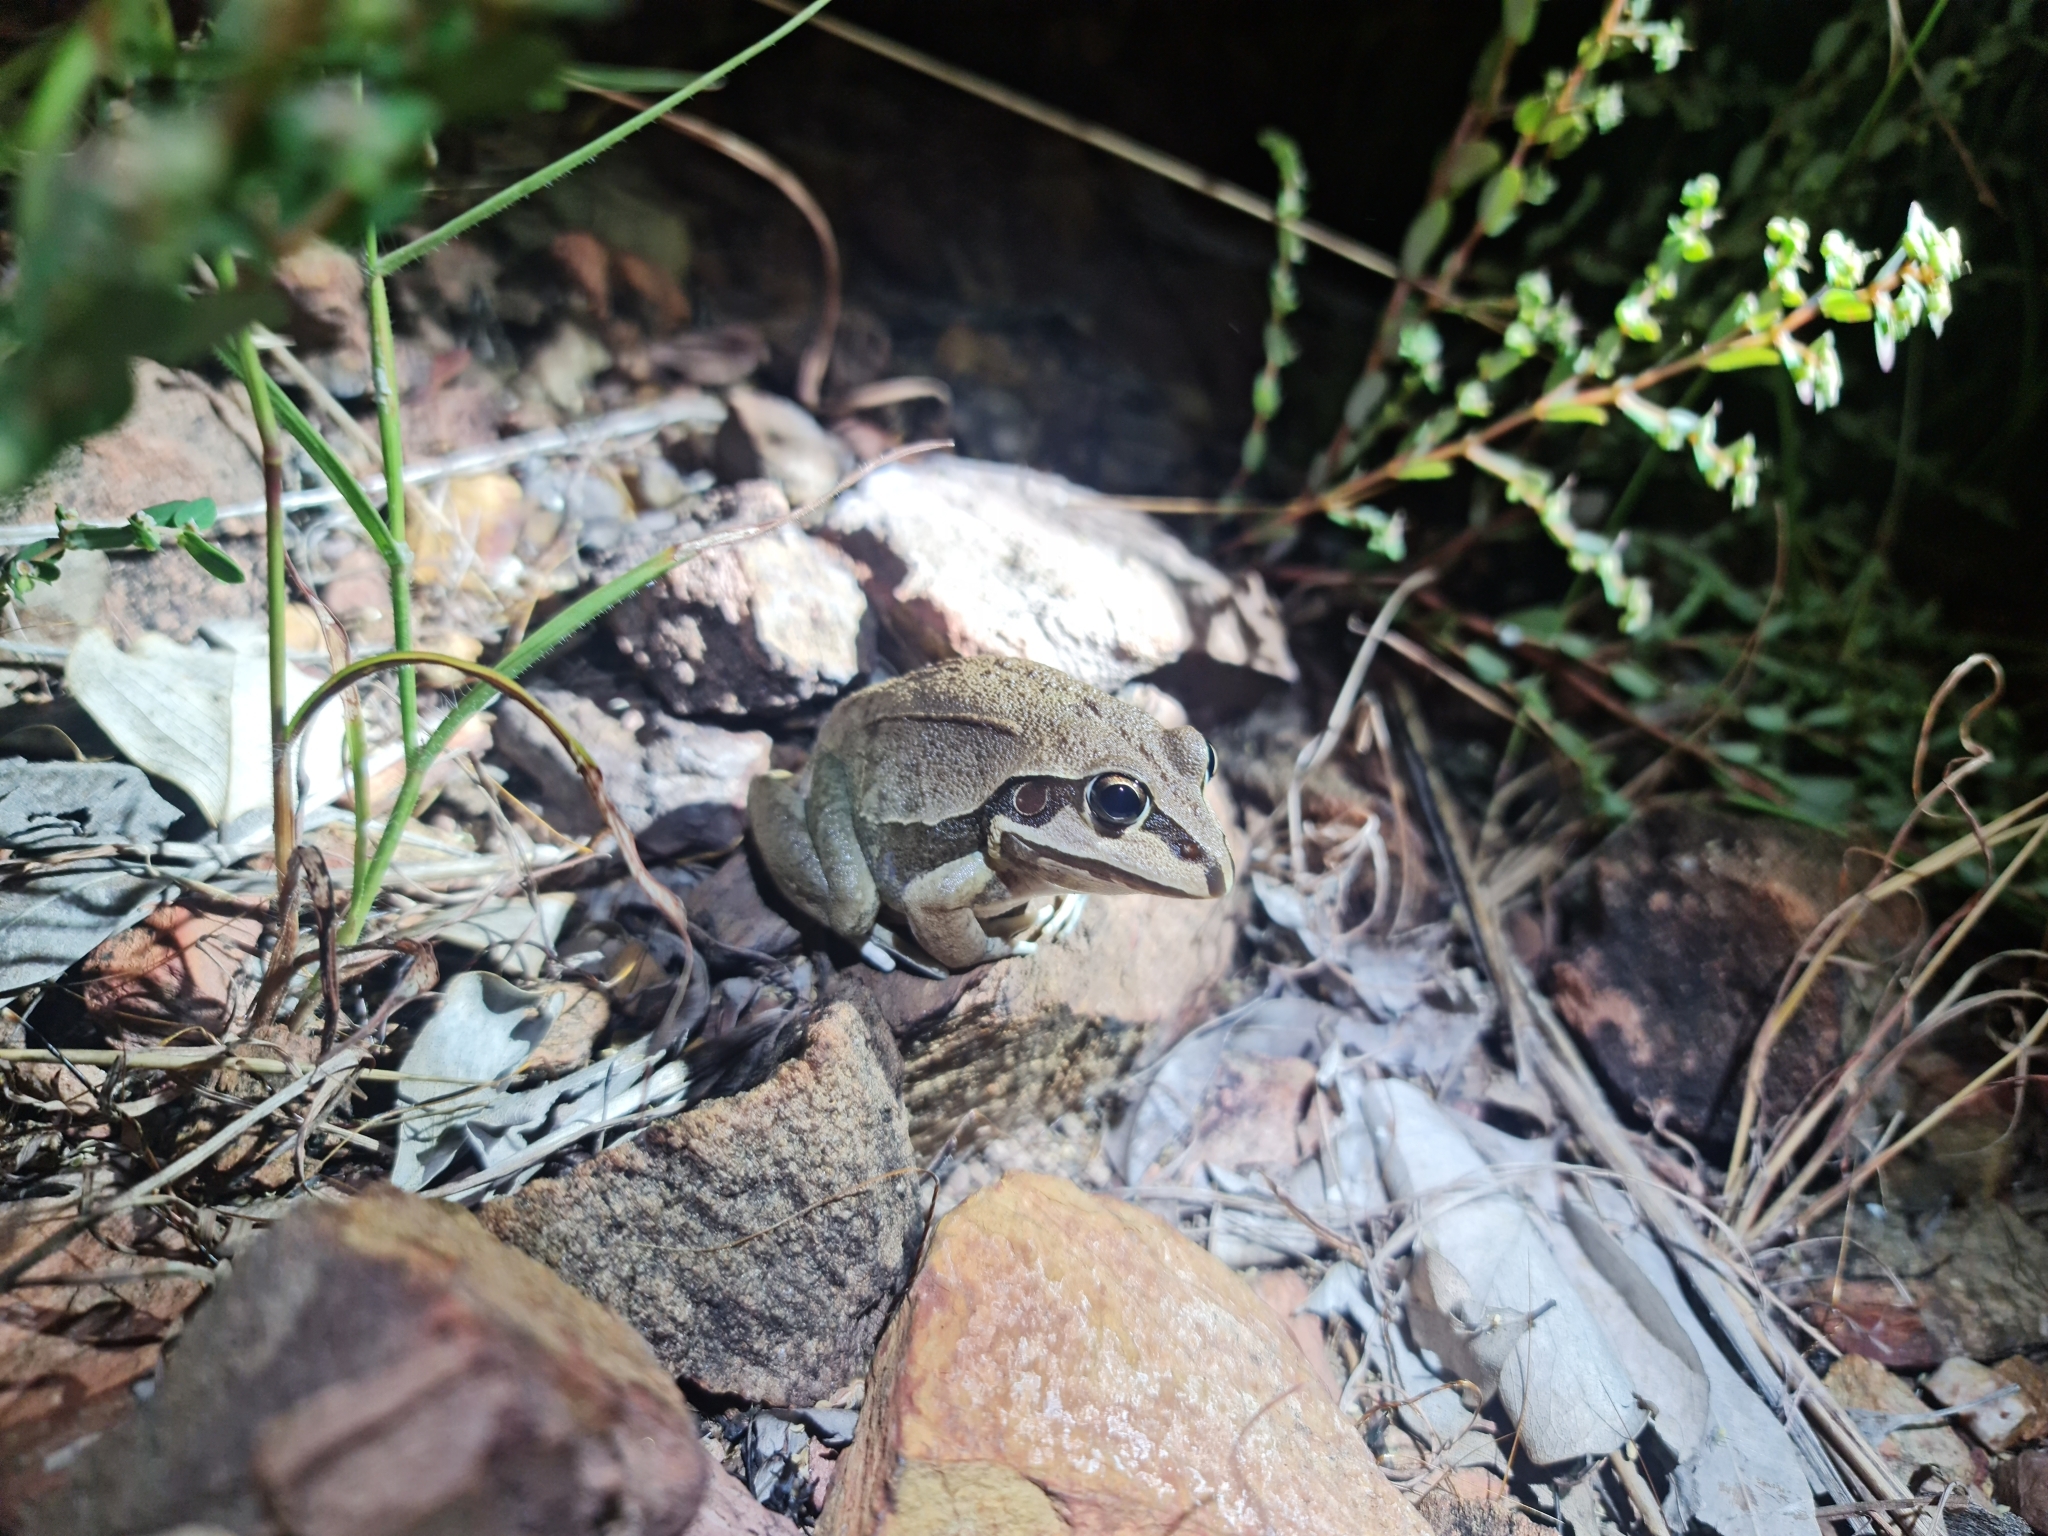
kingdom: Animalia
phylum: Chordata
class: Amphibia
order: Anura
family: Pelodryadidae
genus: Ranoidea
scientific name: Ranoidea australis
